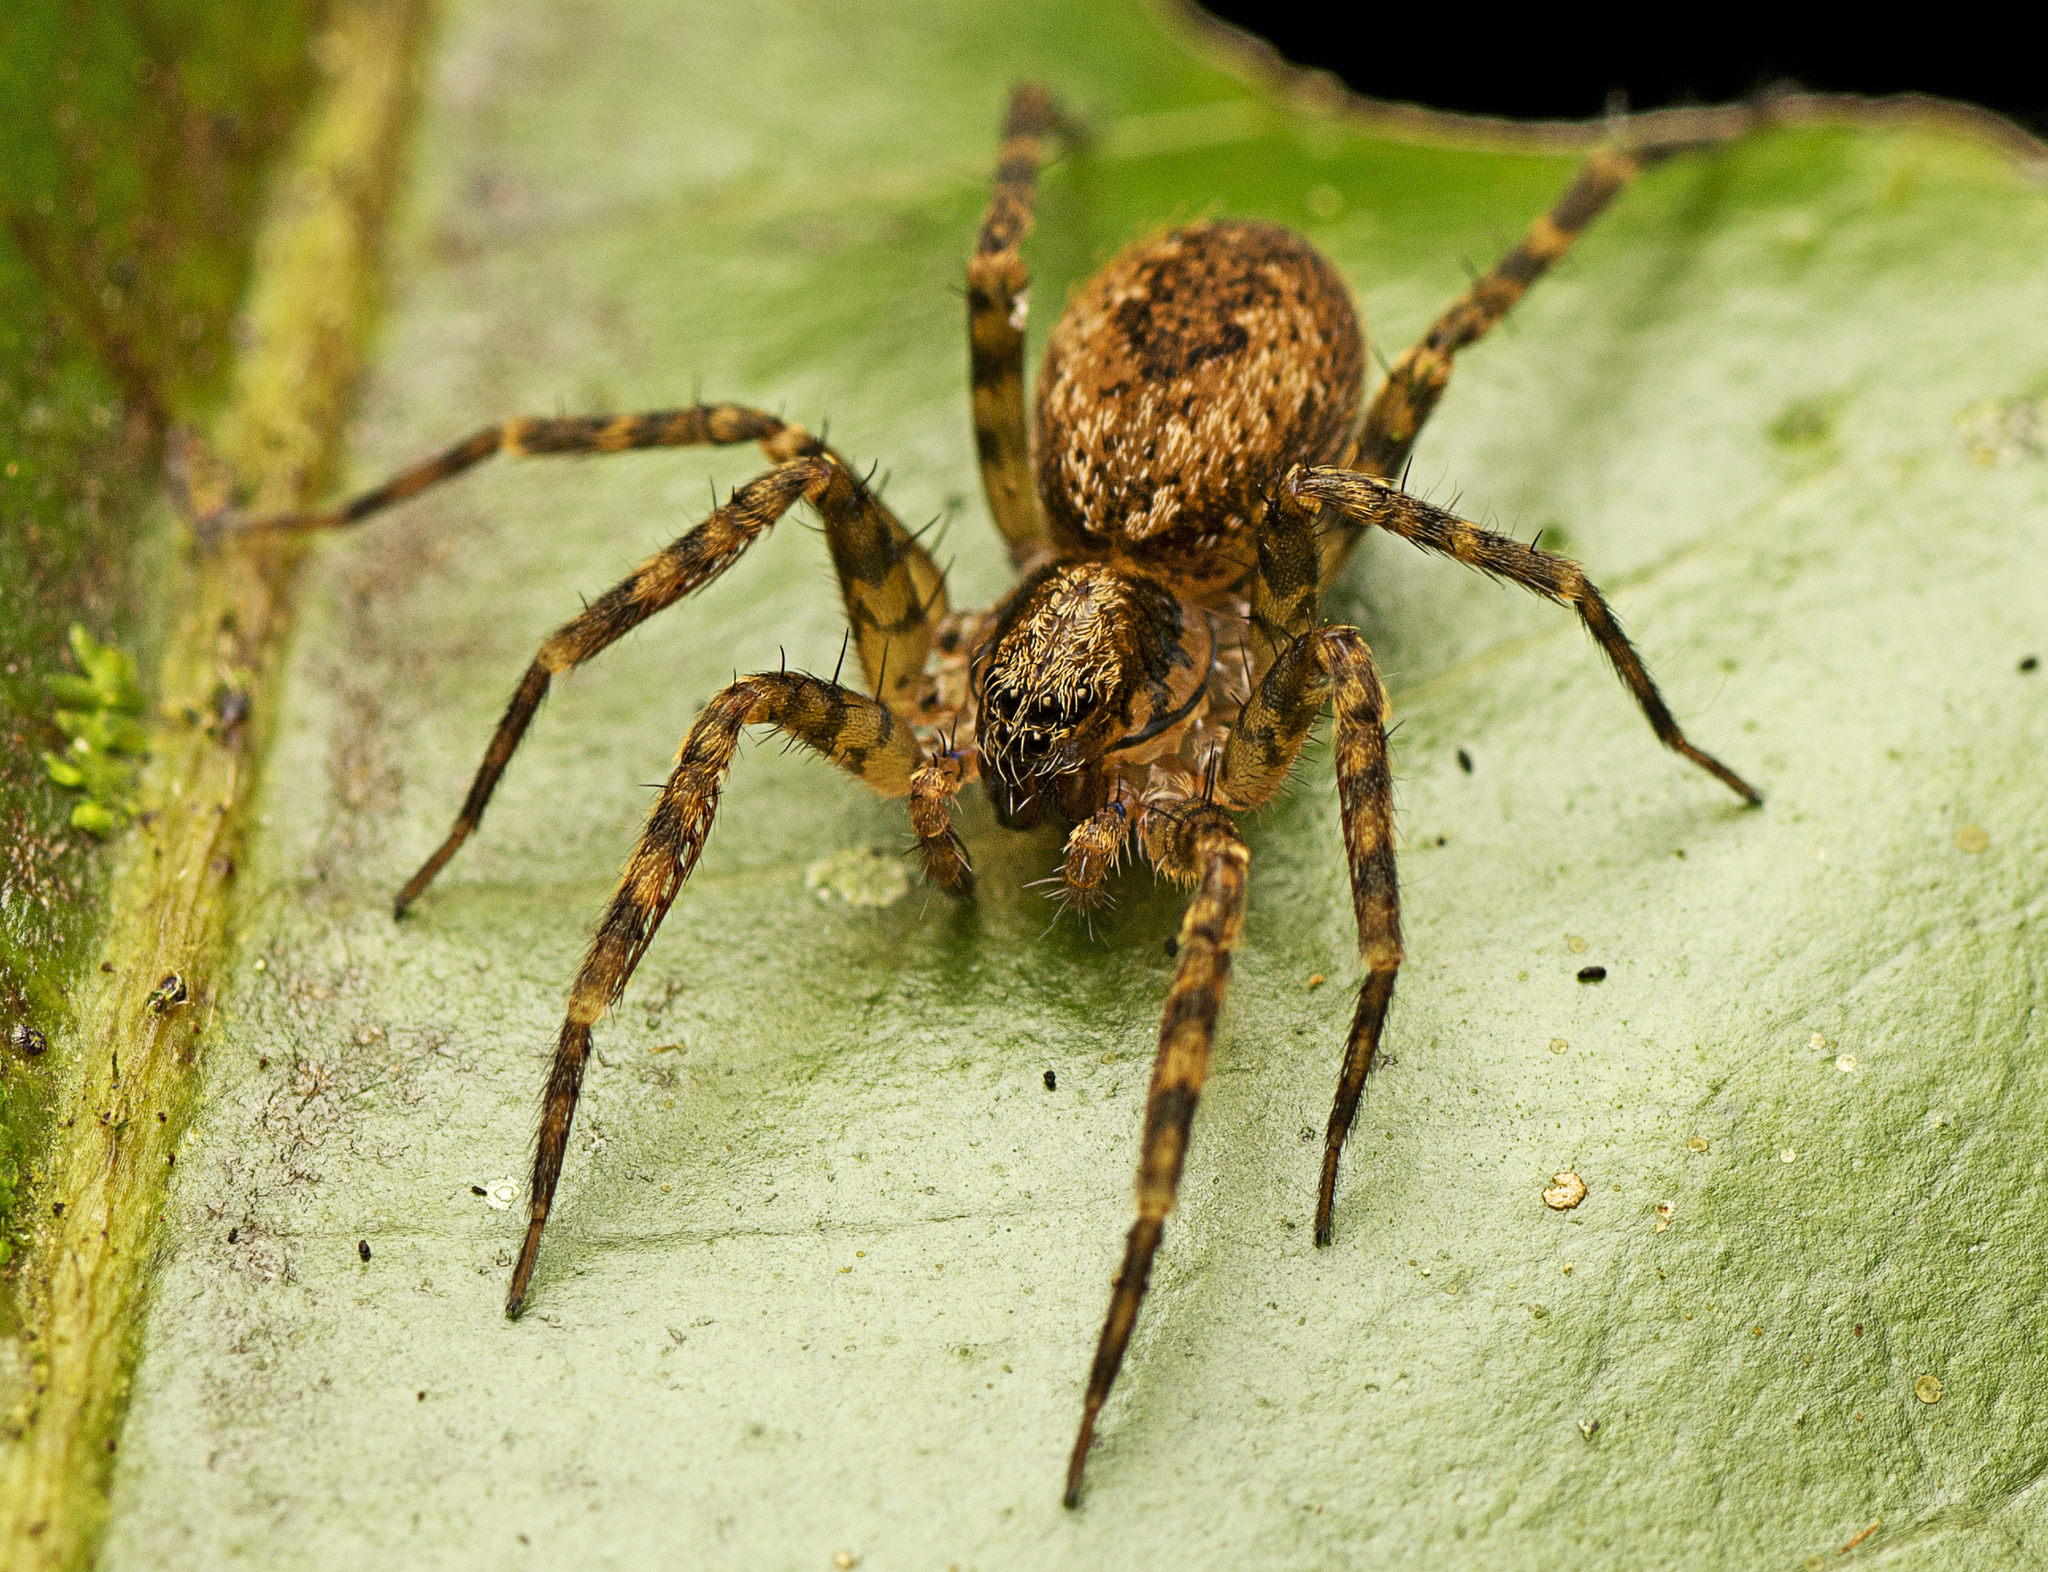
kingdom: Animalia
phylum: Arthropoda
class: Arachnida
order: Araneae
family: Toxopidae
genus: Toxopsoides
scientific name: Toxopsoides erici
